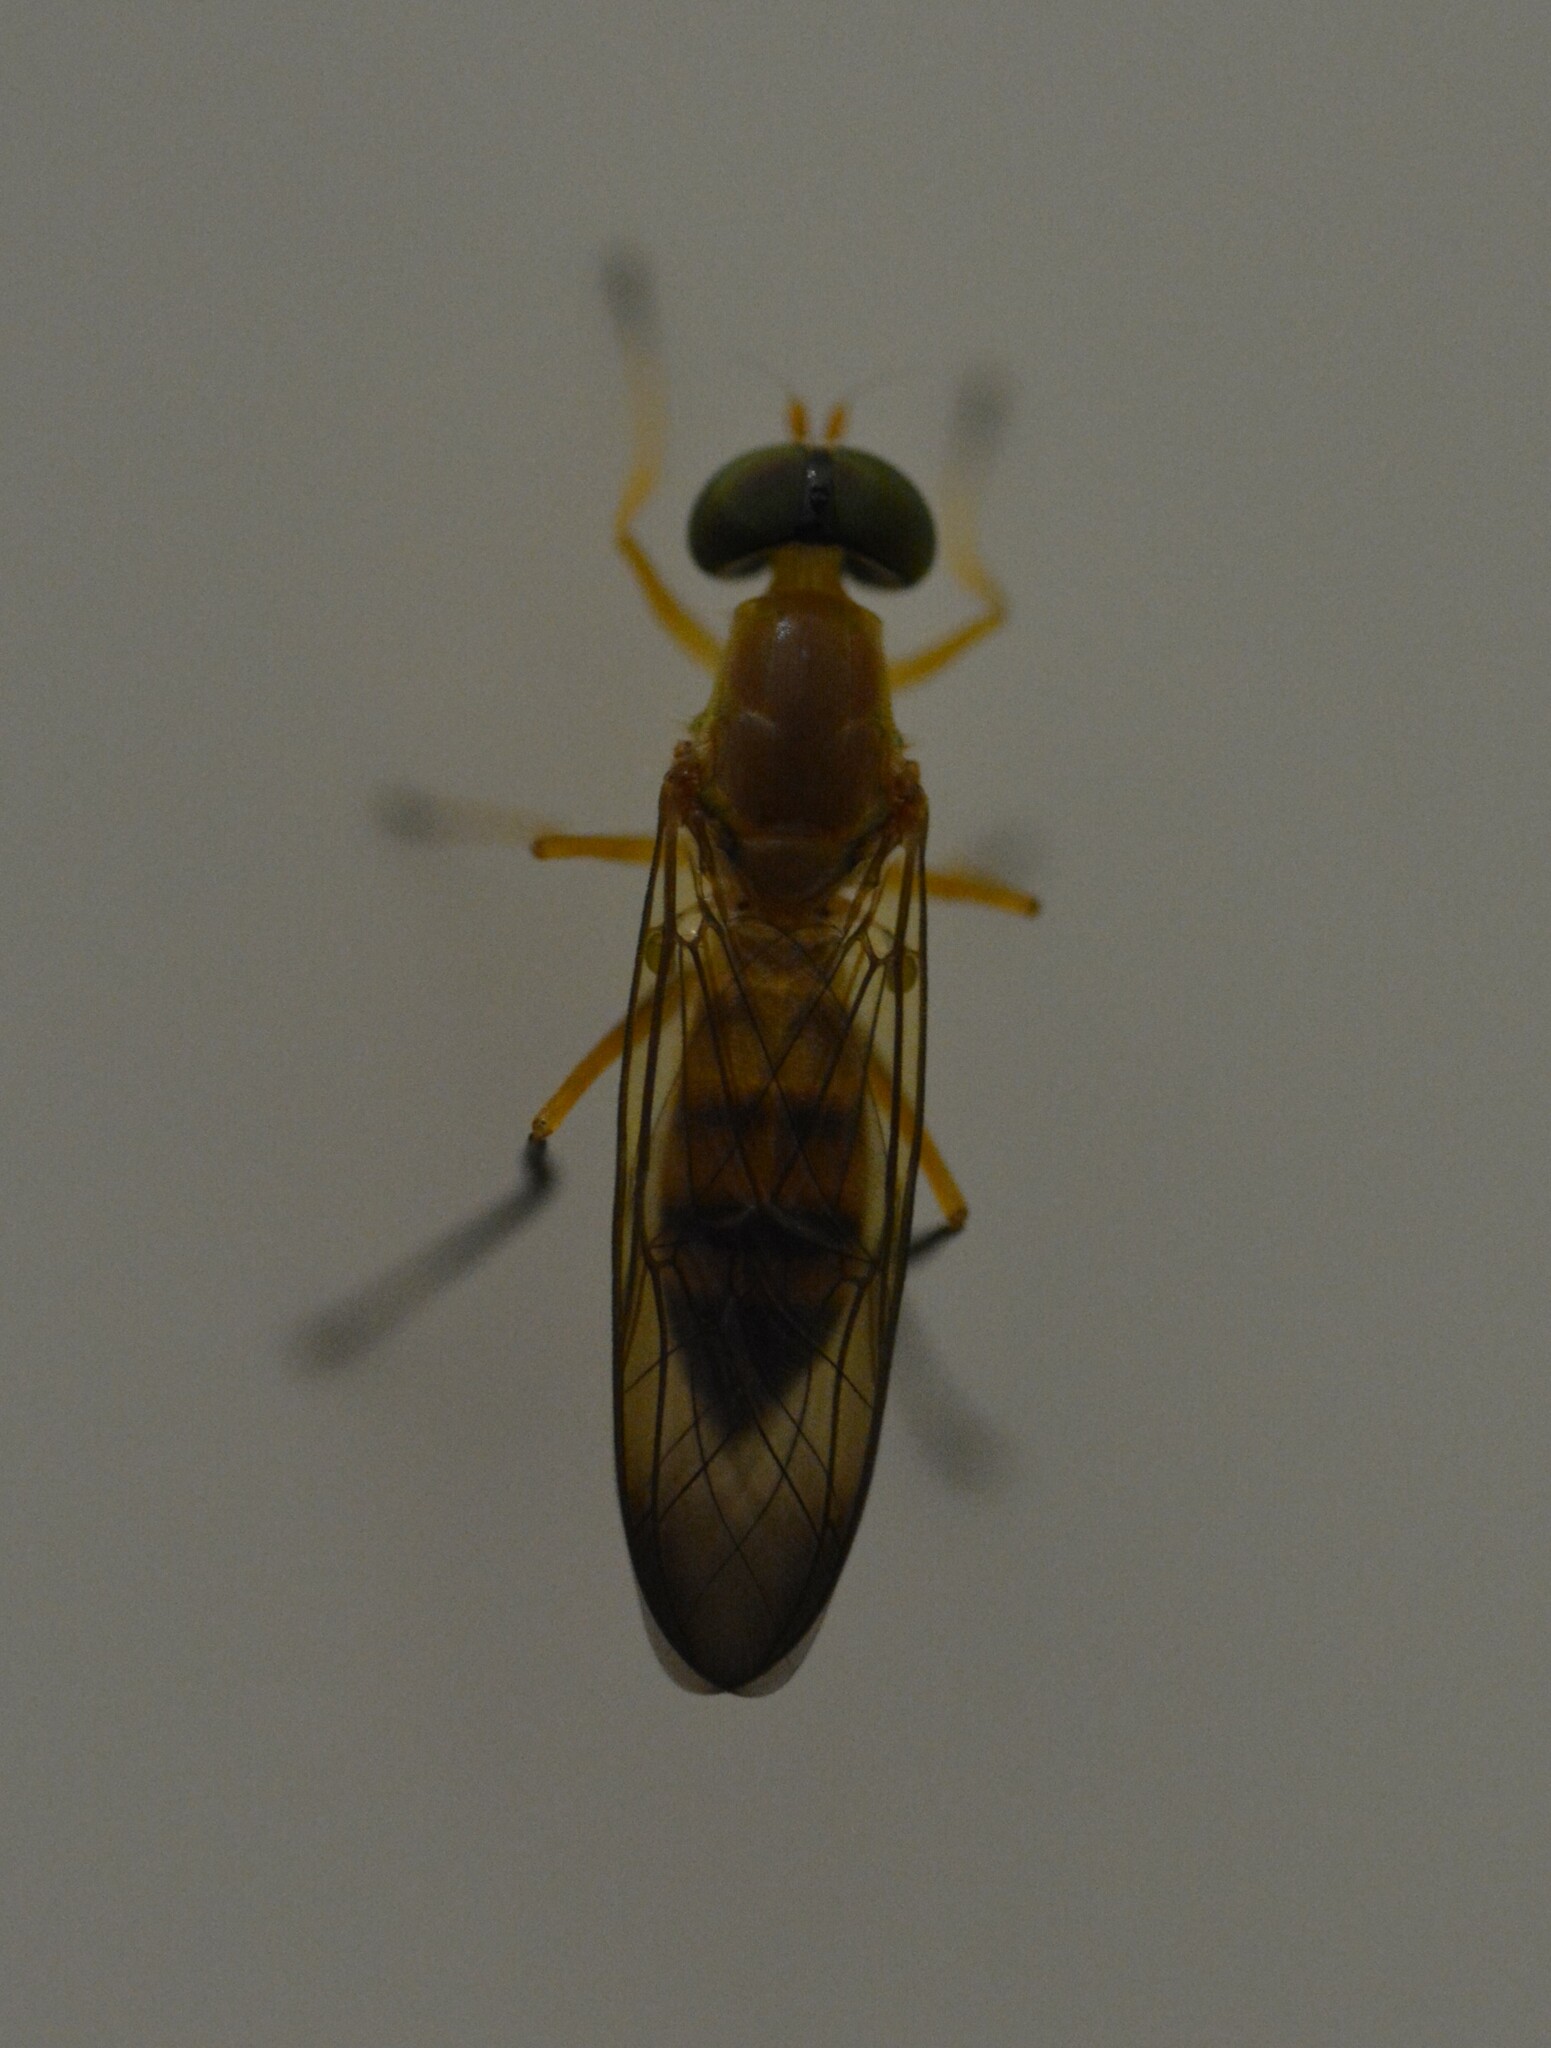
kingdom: Animalia
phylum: Arthropoda
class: Insecta
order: Diptera
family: Stratiomyidae
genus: Ptecticus
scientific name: Ptecticus insularis
